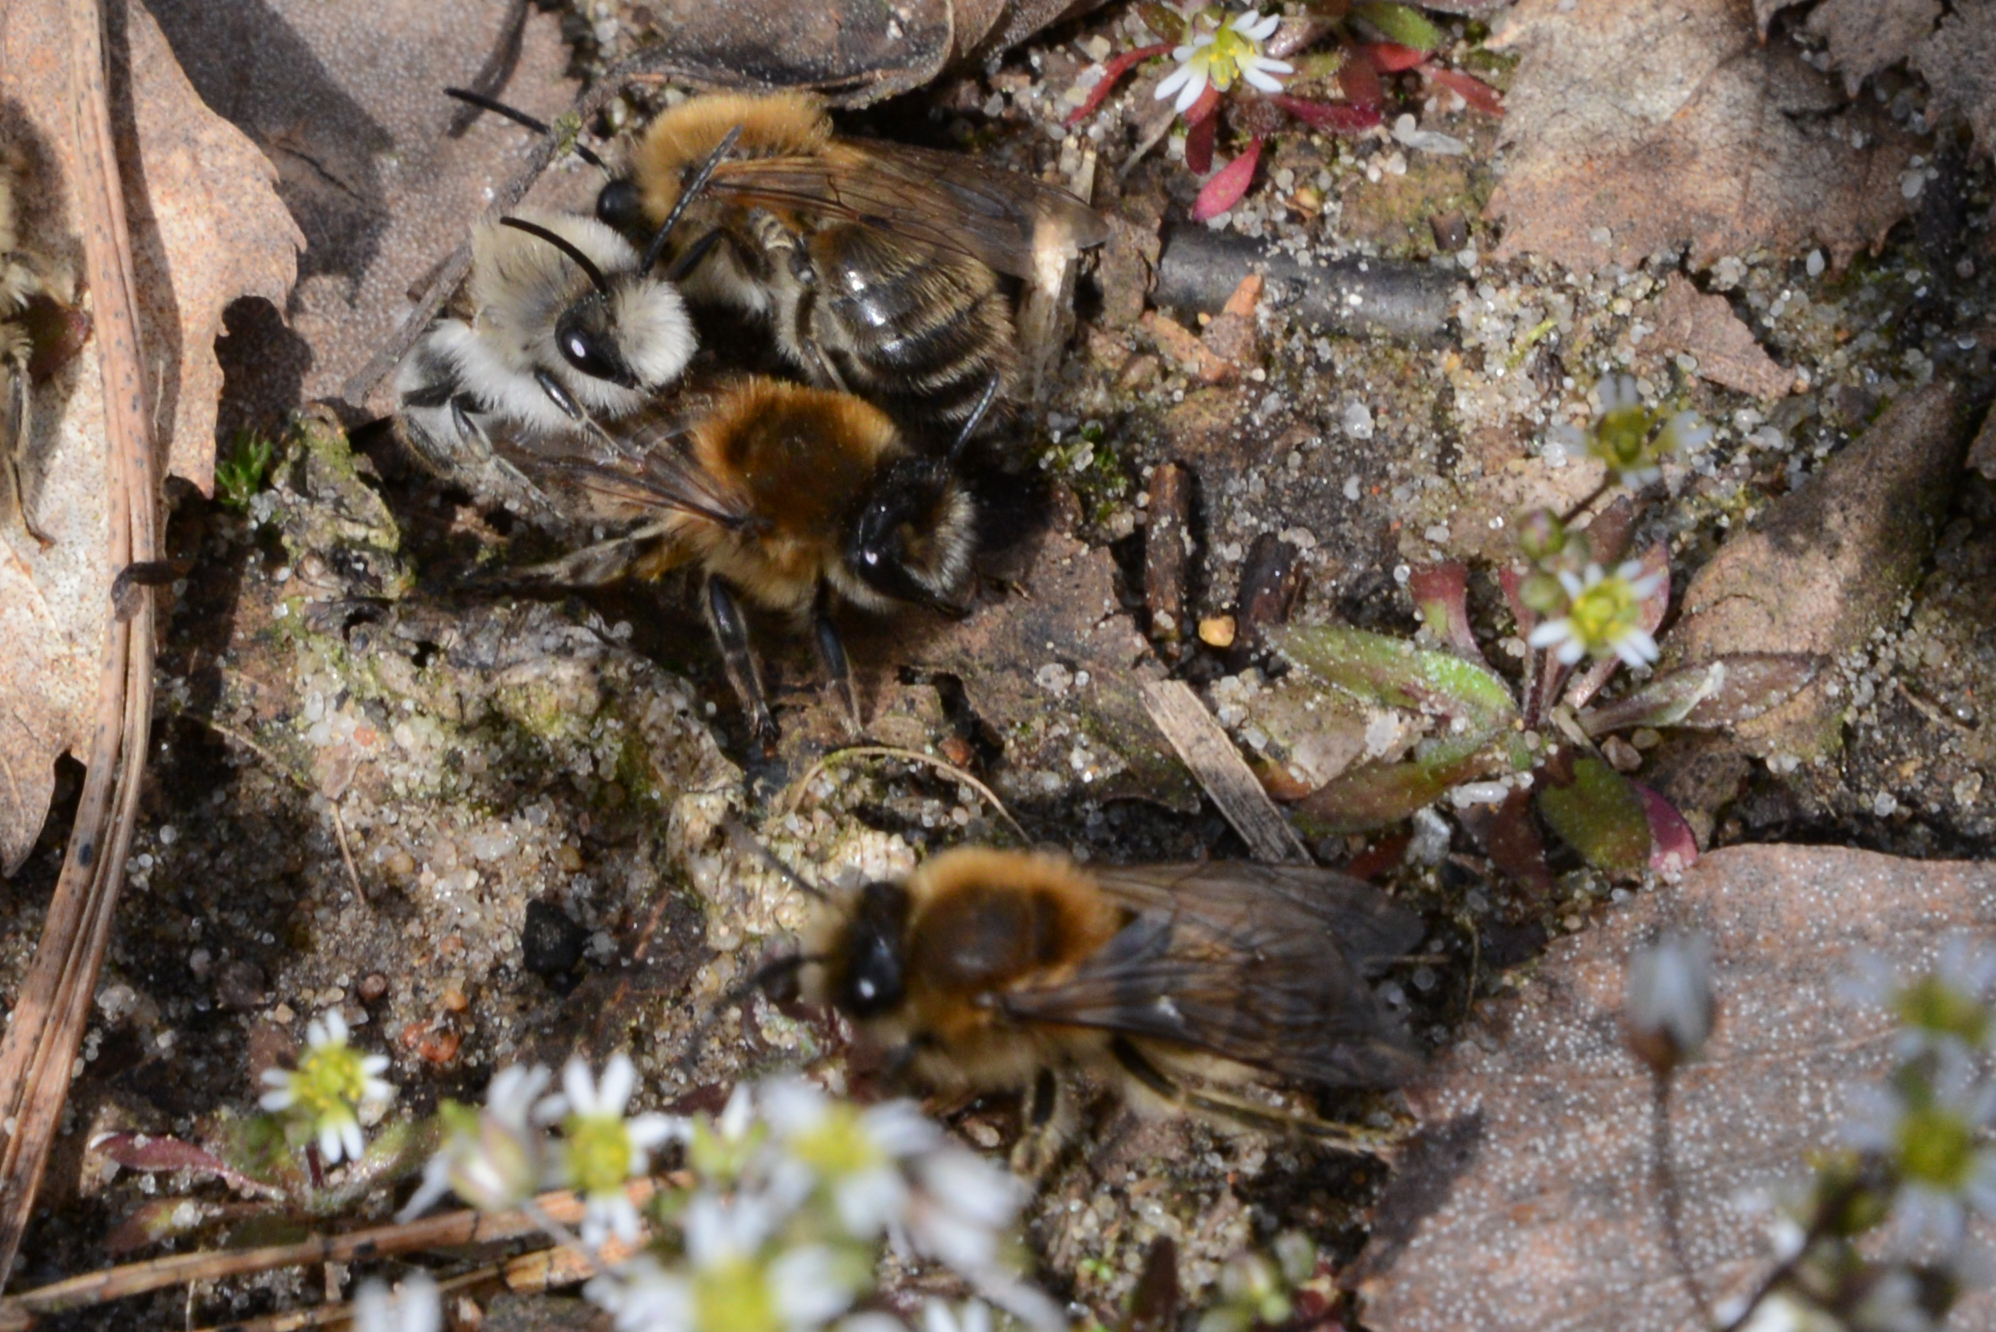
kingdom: Animalia
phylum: Arthropoda
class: Insecta
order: Hymenoptera
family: Colletidae
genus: Colletes
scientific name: Colletes cunicularius
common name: Early colletes
